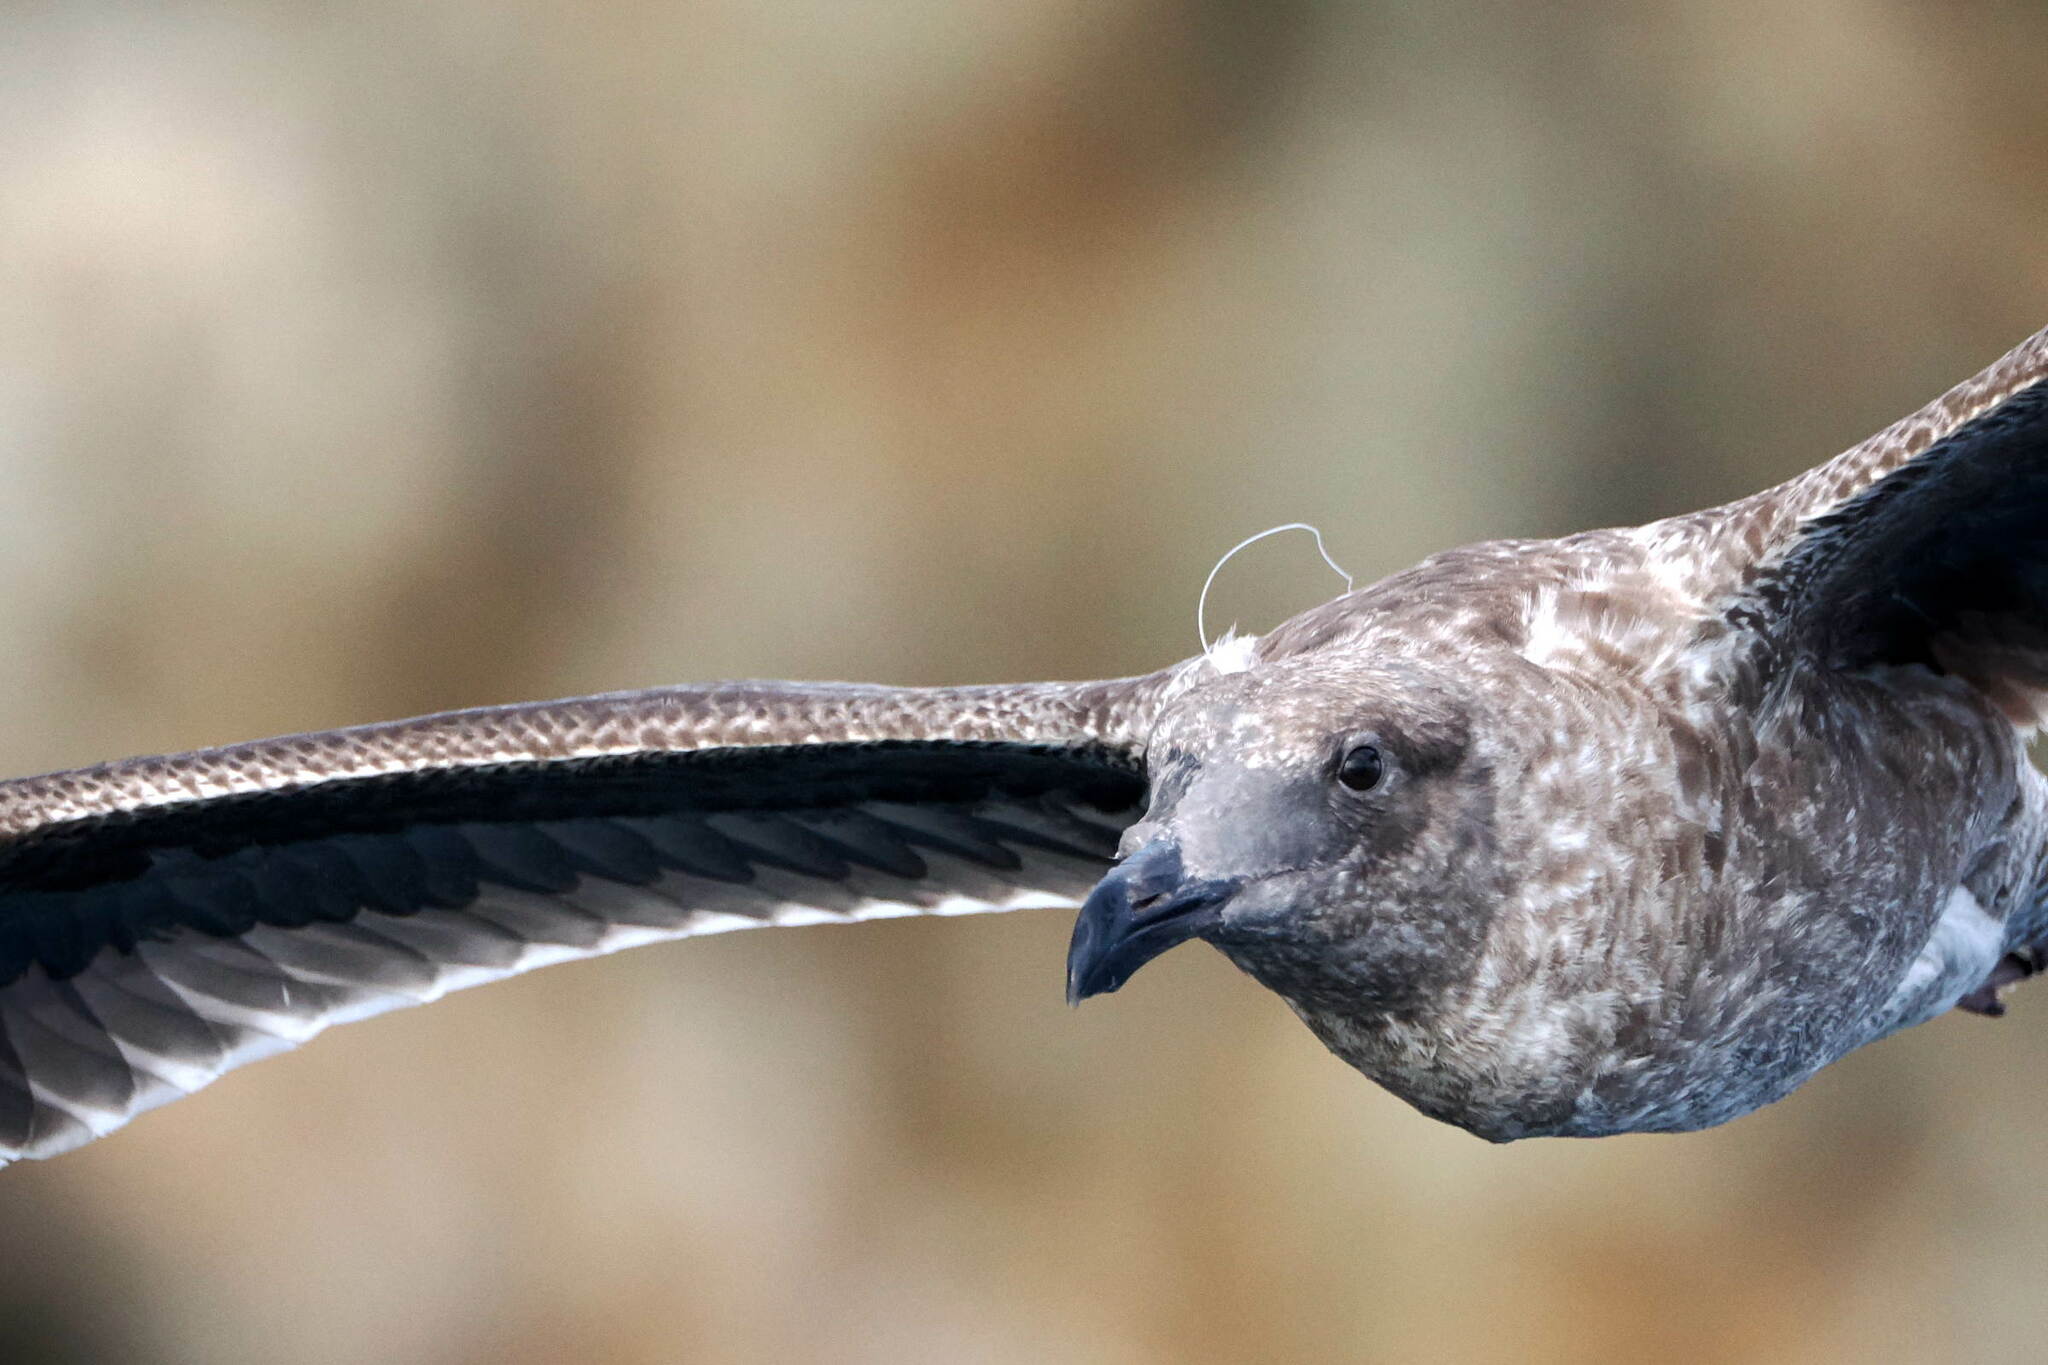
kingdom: Animalia
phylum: Chordata
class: Aves
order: Charadriiformes
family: Laridae
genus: Larus
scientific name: Larus occidentalis
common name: Western gull
